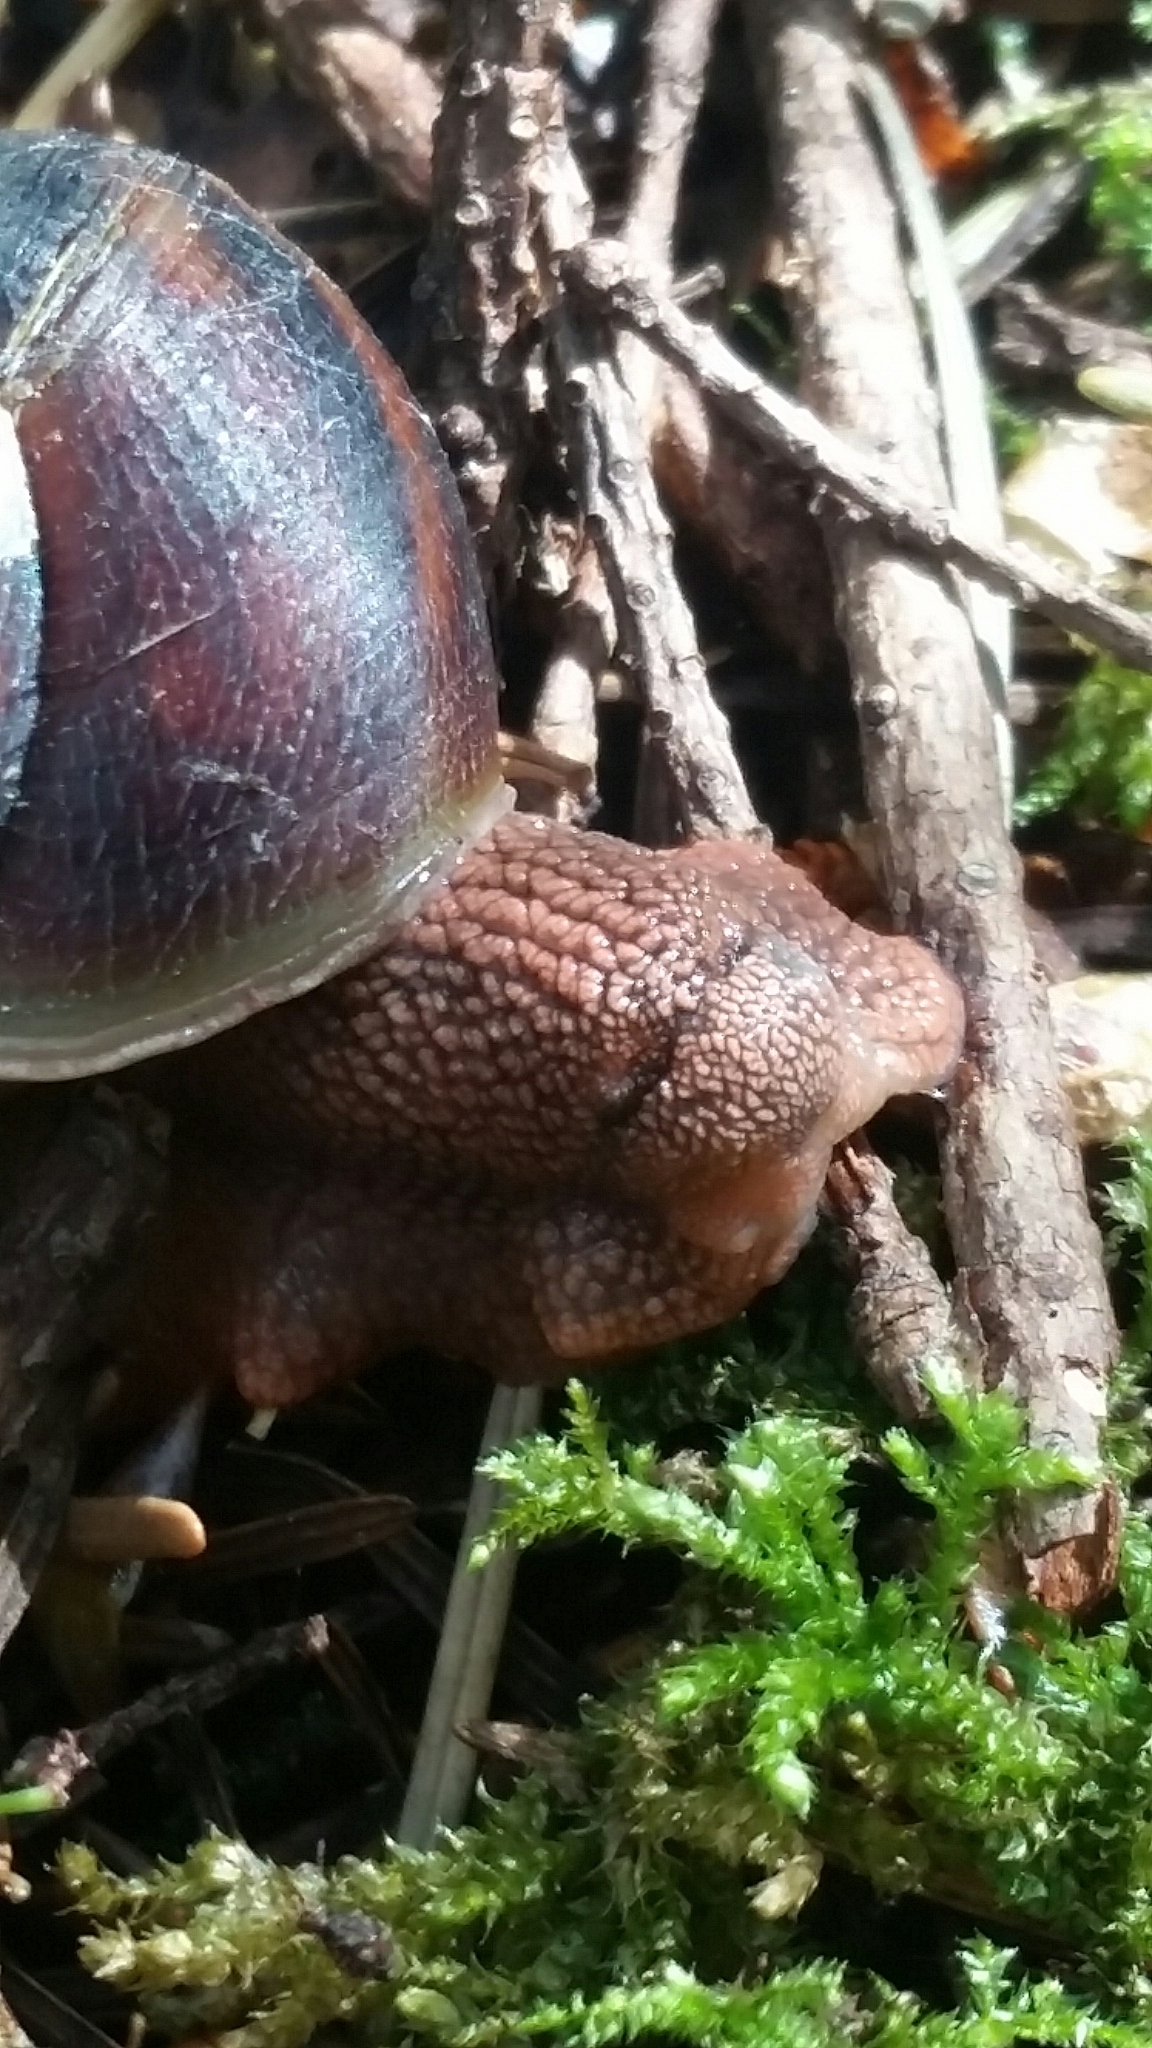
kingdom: Animalia
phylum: Mollusca
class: Gastropoda
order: Stylommatophora
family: Xanthonychidae
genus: Monadenia
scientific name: Monadenia fidelis
